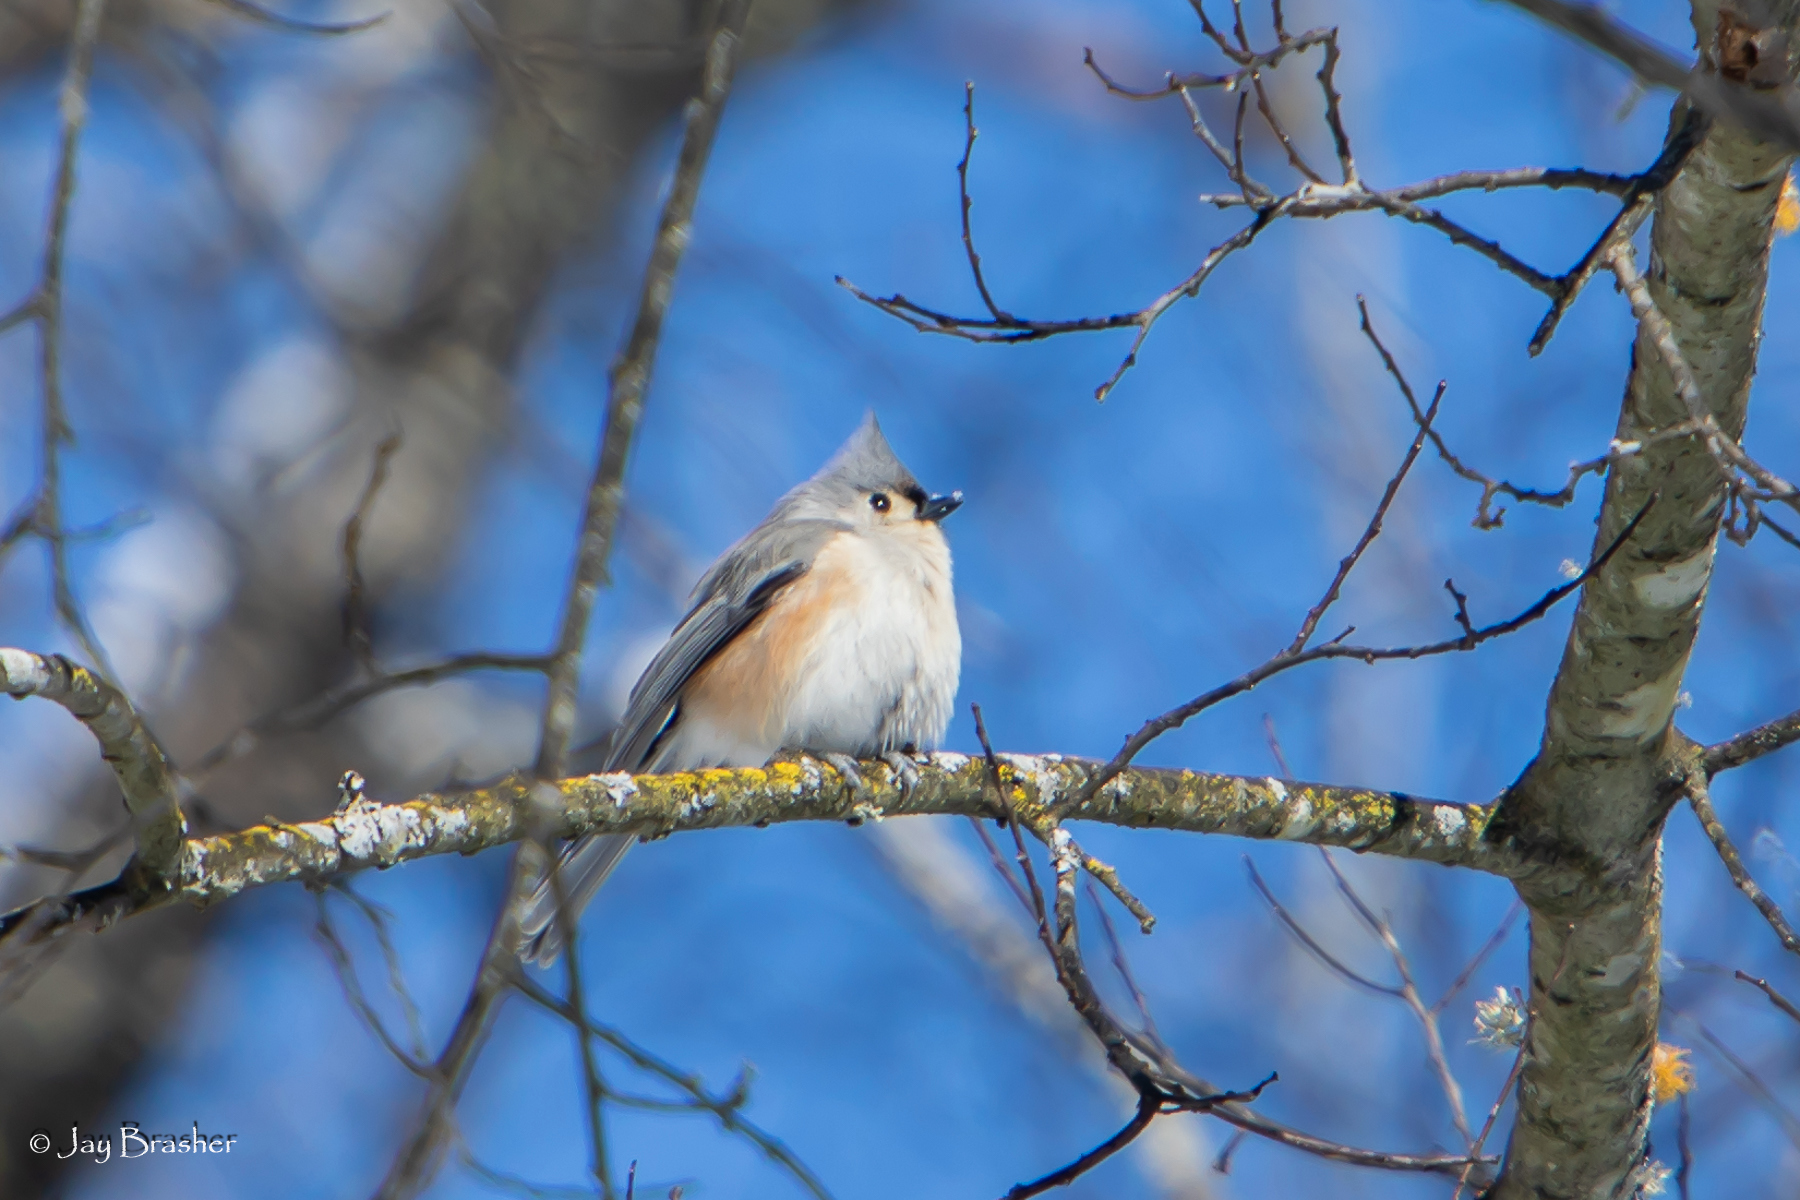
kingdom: Animalia
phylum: Chordata
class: Aves
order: Passeriformes
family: Paridae
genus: Baeolophus
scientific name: Baeolophus bicolor
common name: Tufted titmouse
